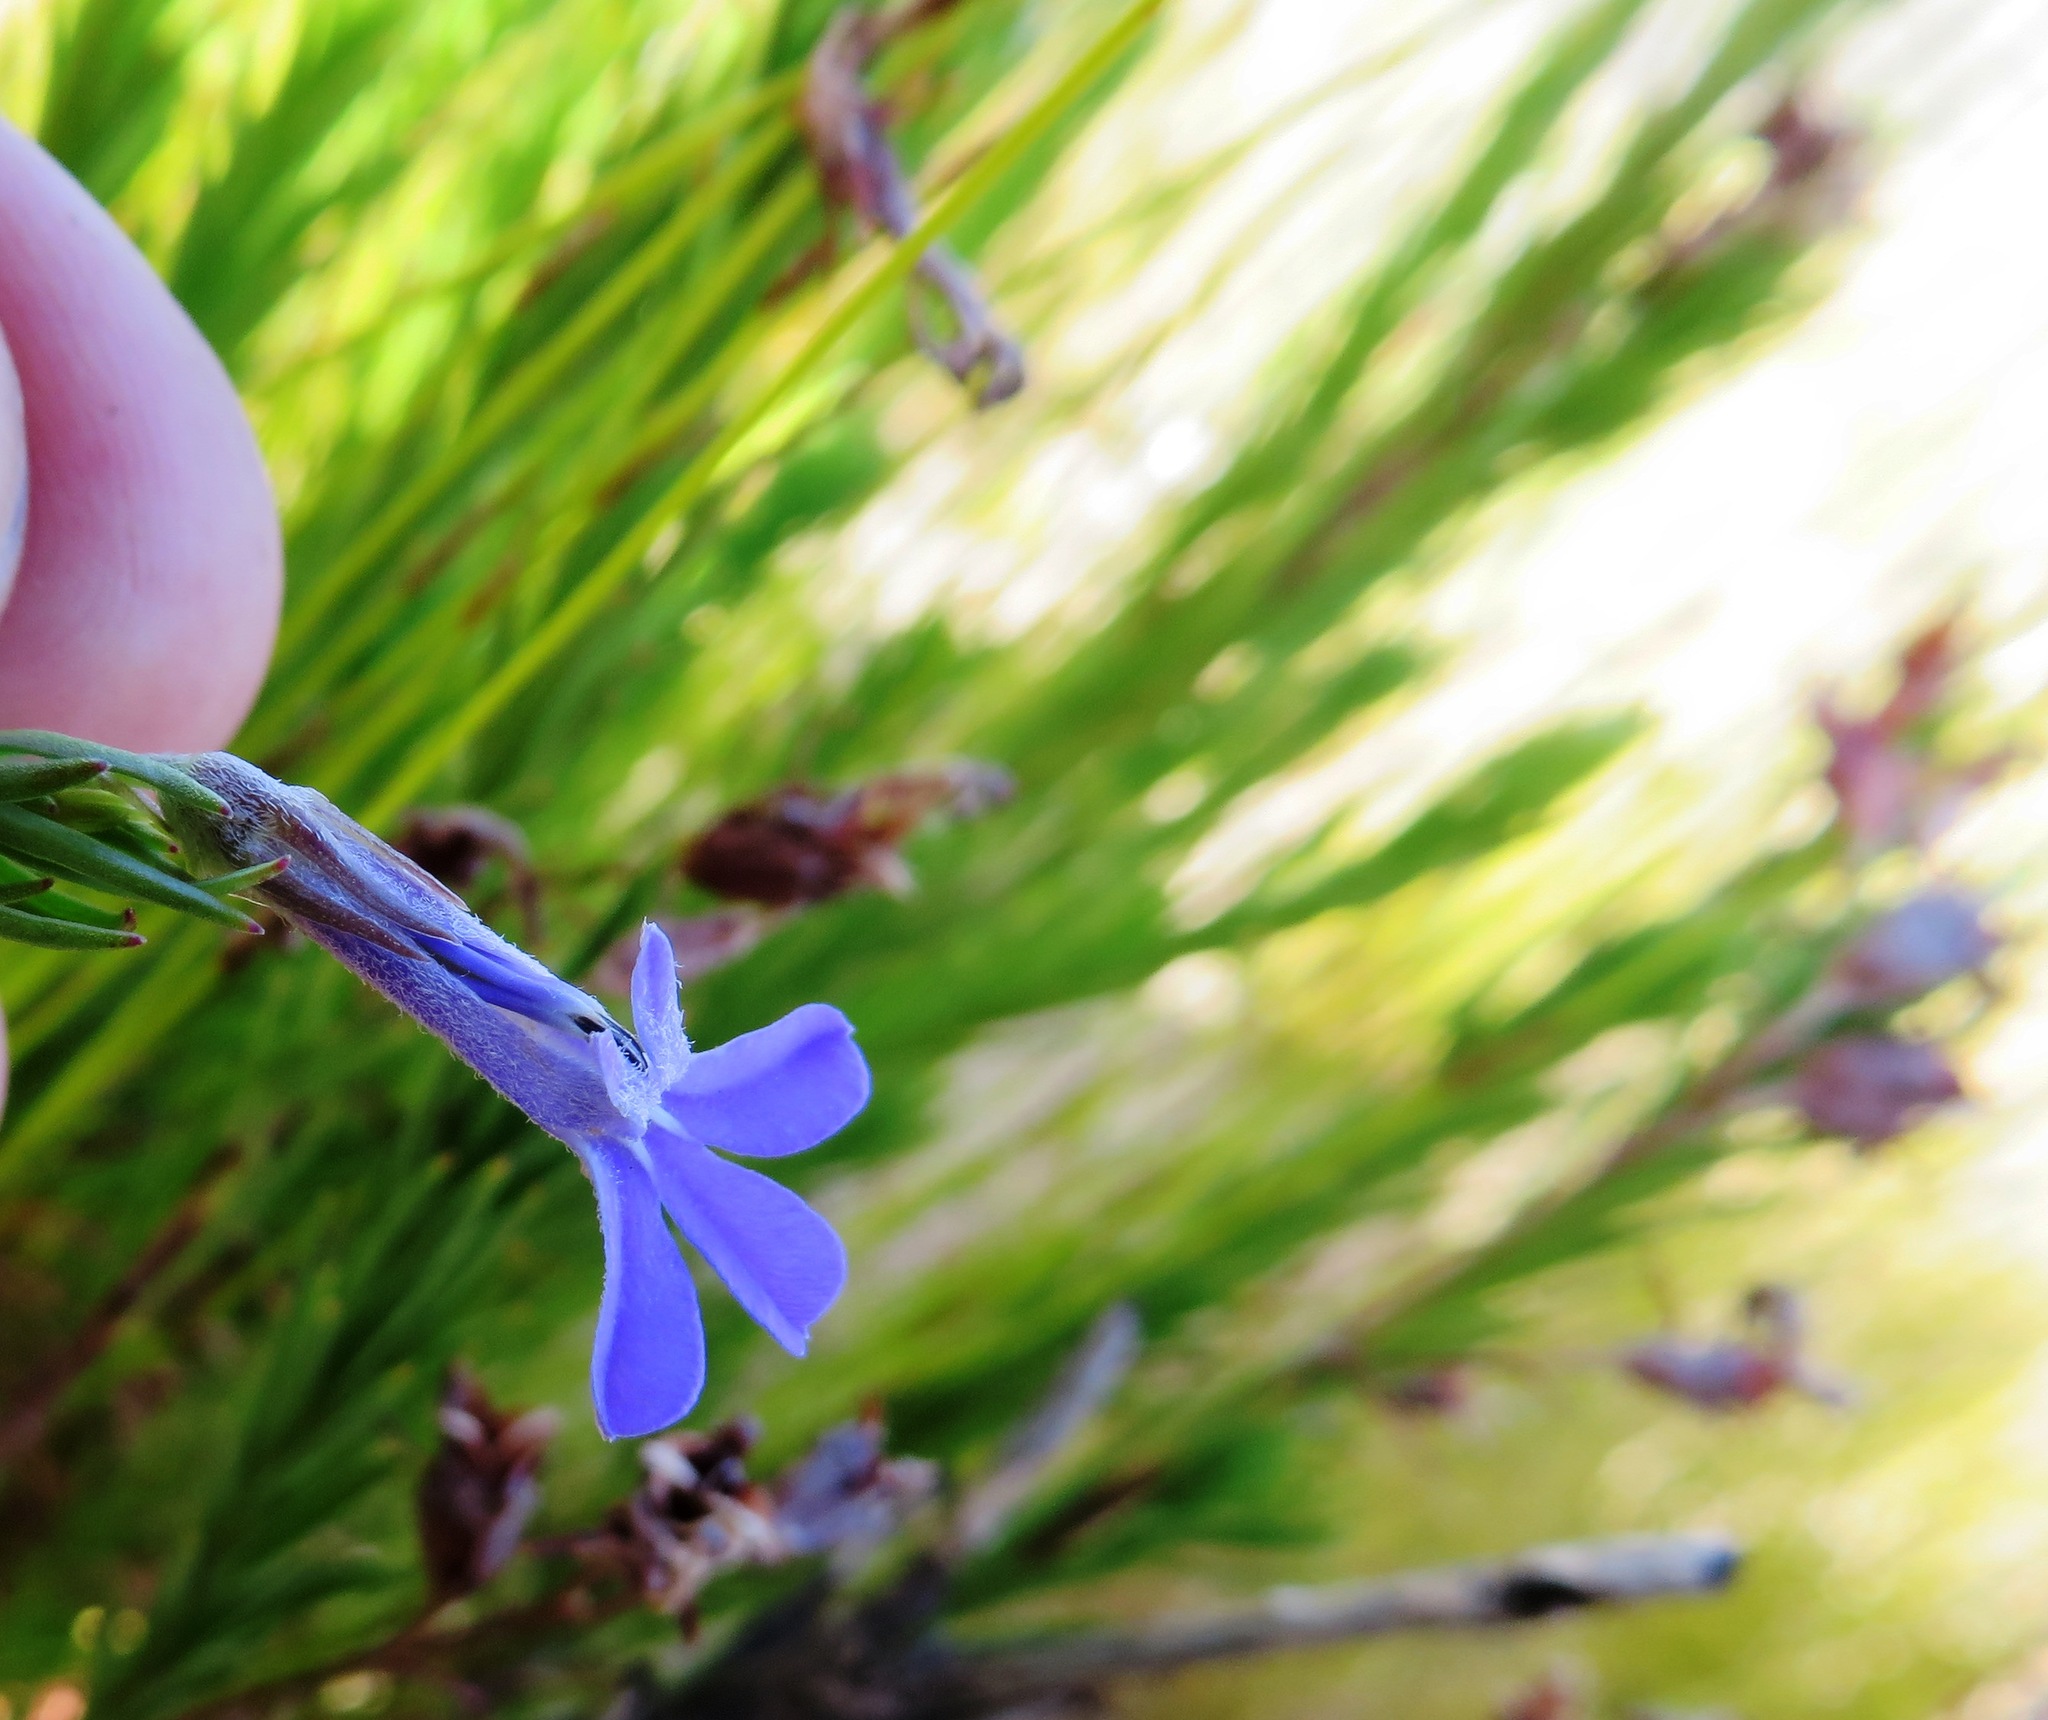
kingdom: Plantae
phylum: Tracheophyta
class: Magnoliopsida
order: Asterales
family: Campanulaceae
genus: Lobelia
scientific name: Lobelia pinifolia
